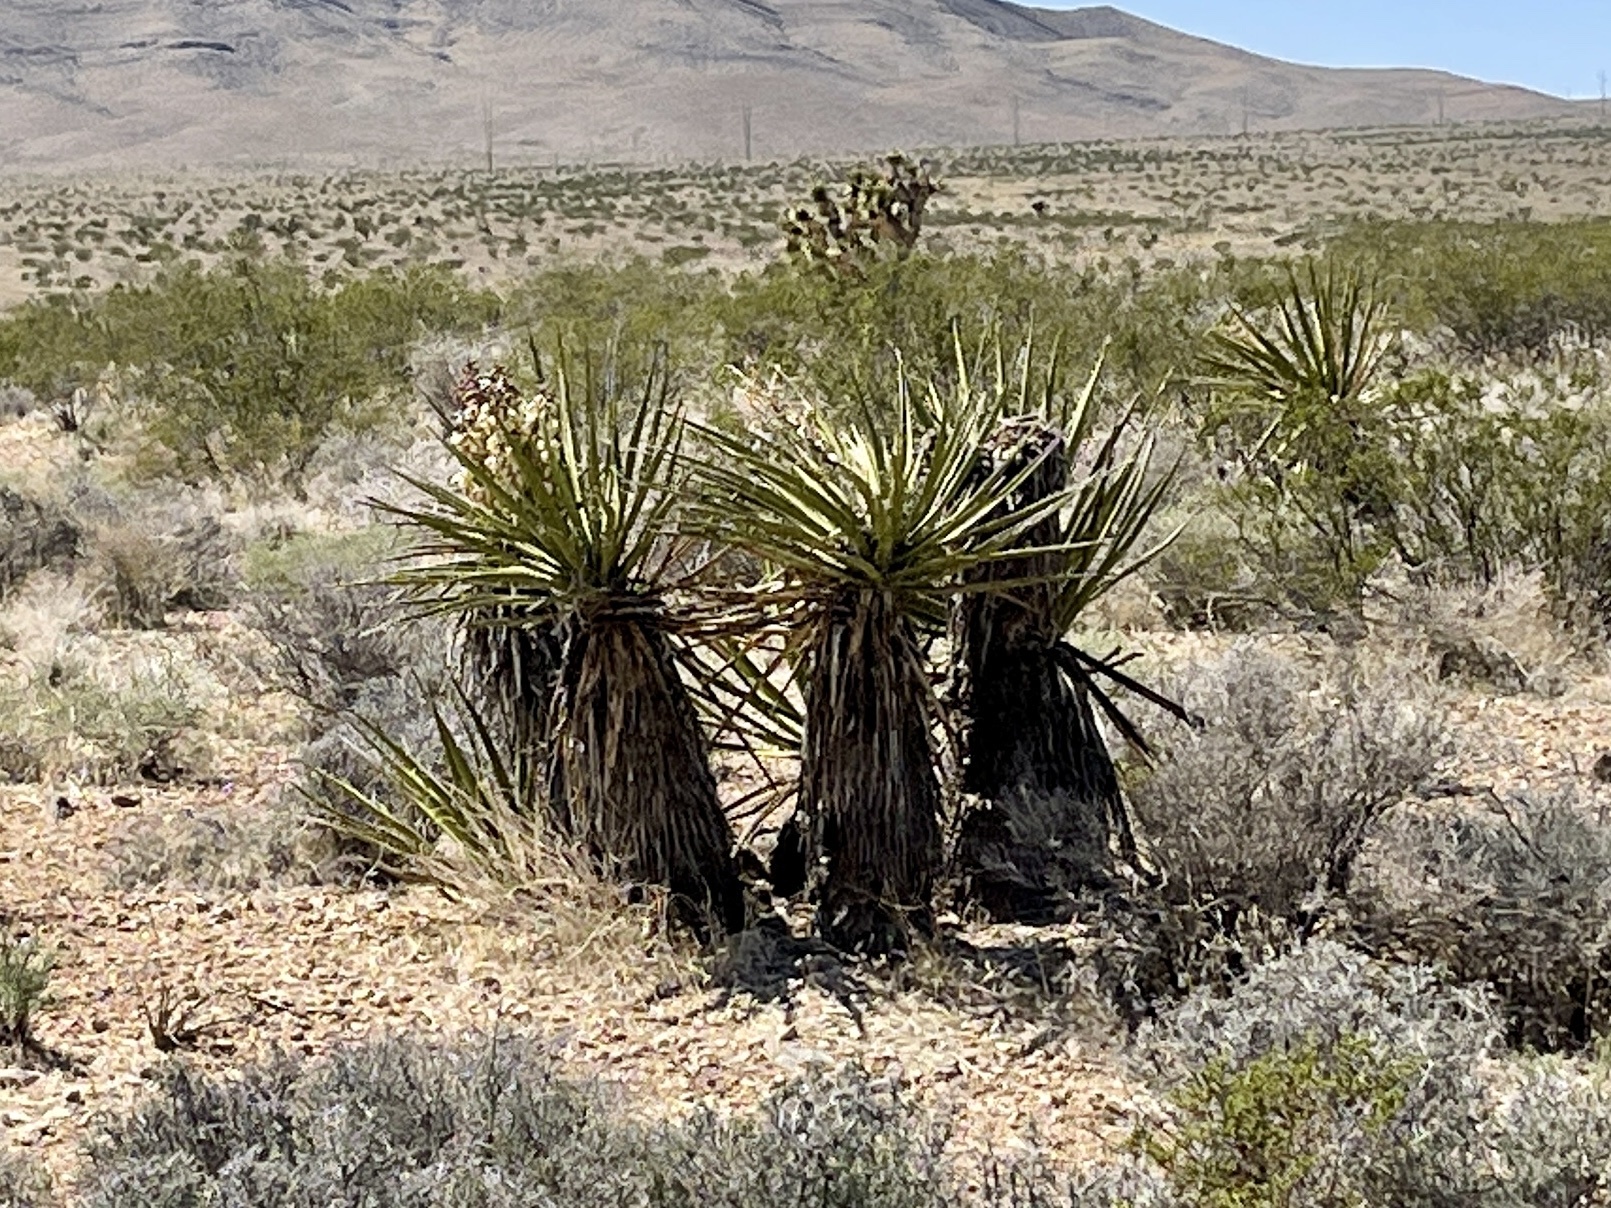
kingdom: Plantae
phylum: Tracheophyta
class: Liliopsida
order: Asparagales
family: Asparagaceae
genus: Yucca
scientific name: Yucca schidigera
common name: Mojave yucca
